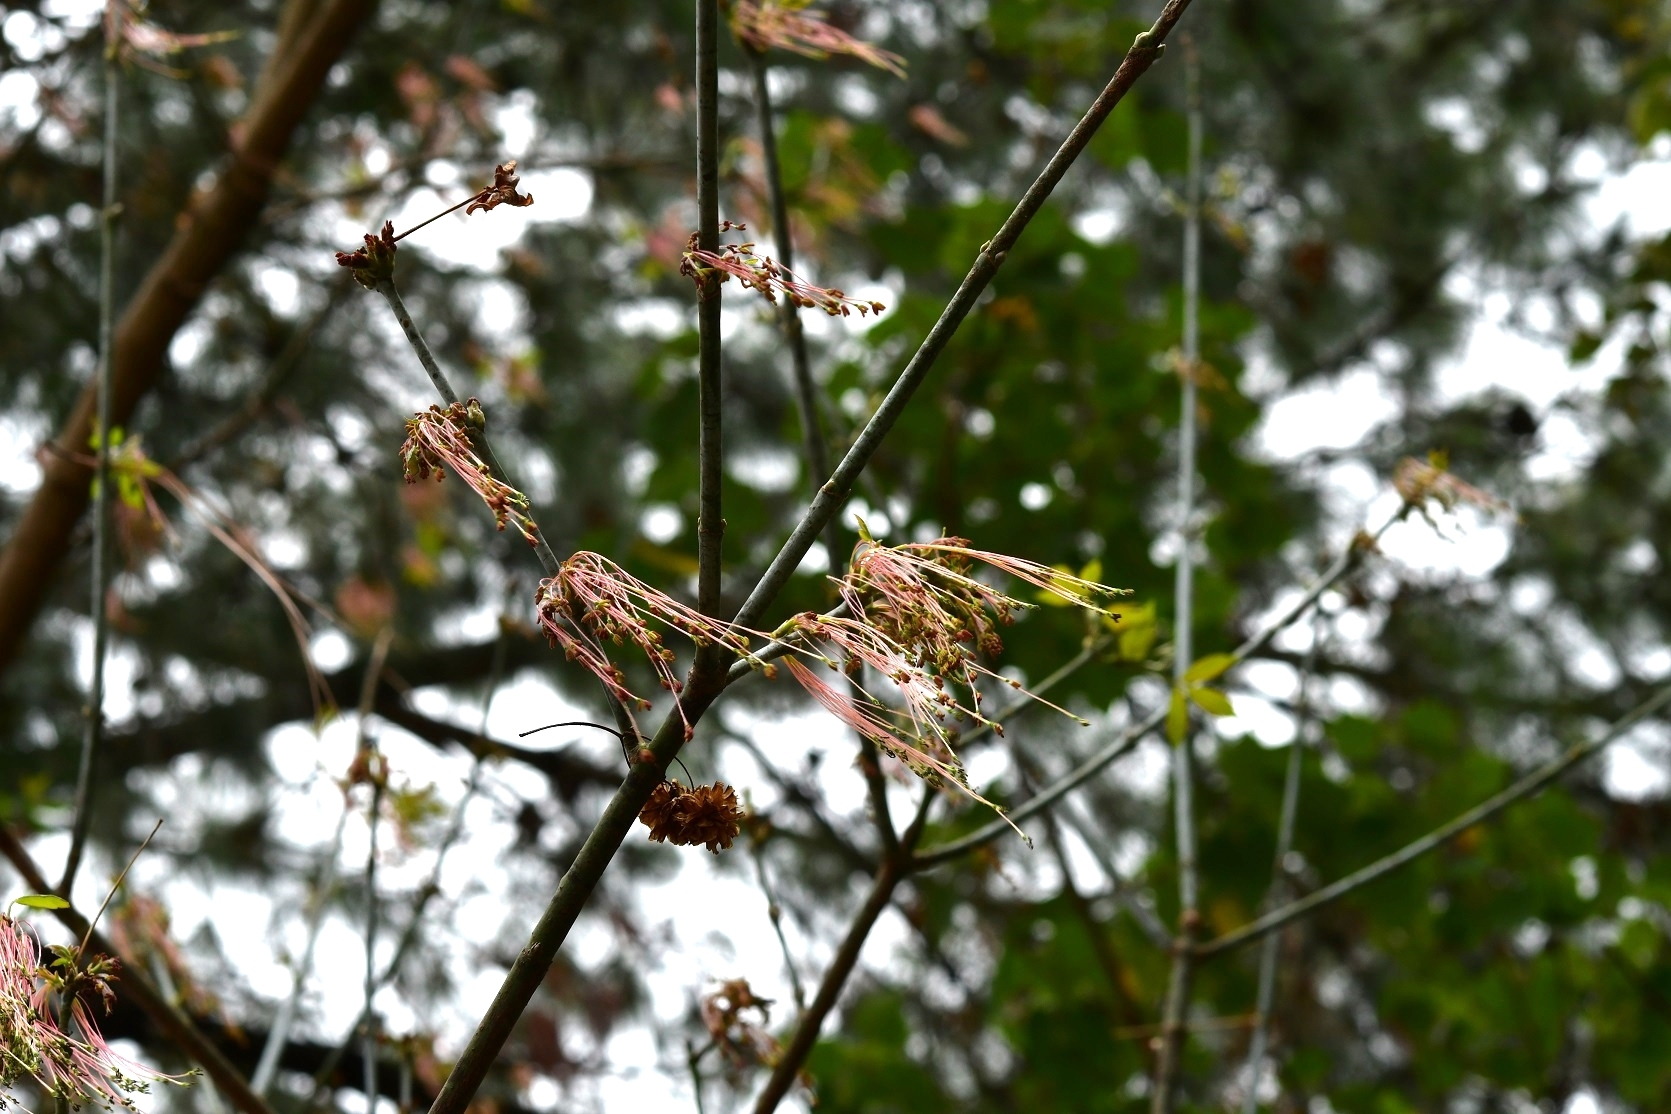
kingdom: Plantae
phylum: Tracheophyta
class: Magnoliopsida
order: Sapindales
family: Sapindaceae
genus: Acer
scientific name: Acer negundo
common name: Ashleaf maple
